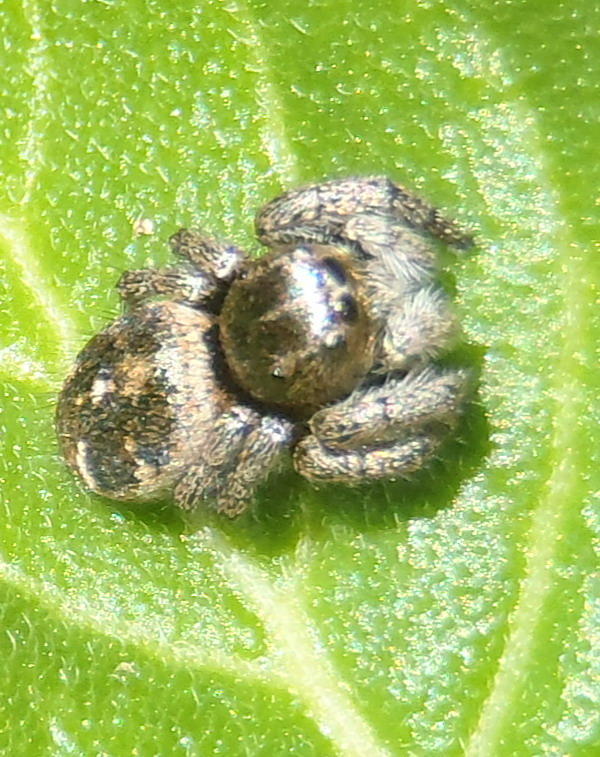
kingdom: Animalia
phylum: Arthropoda
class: Arachnida
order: Araneae
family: Salticidae
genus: Baryphas
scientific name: Baryphas ahenus
